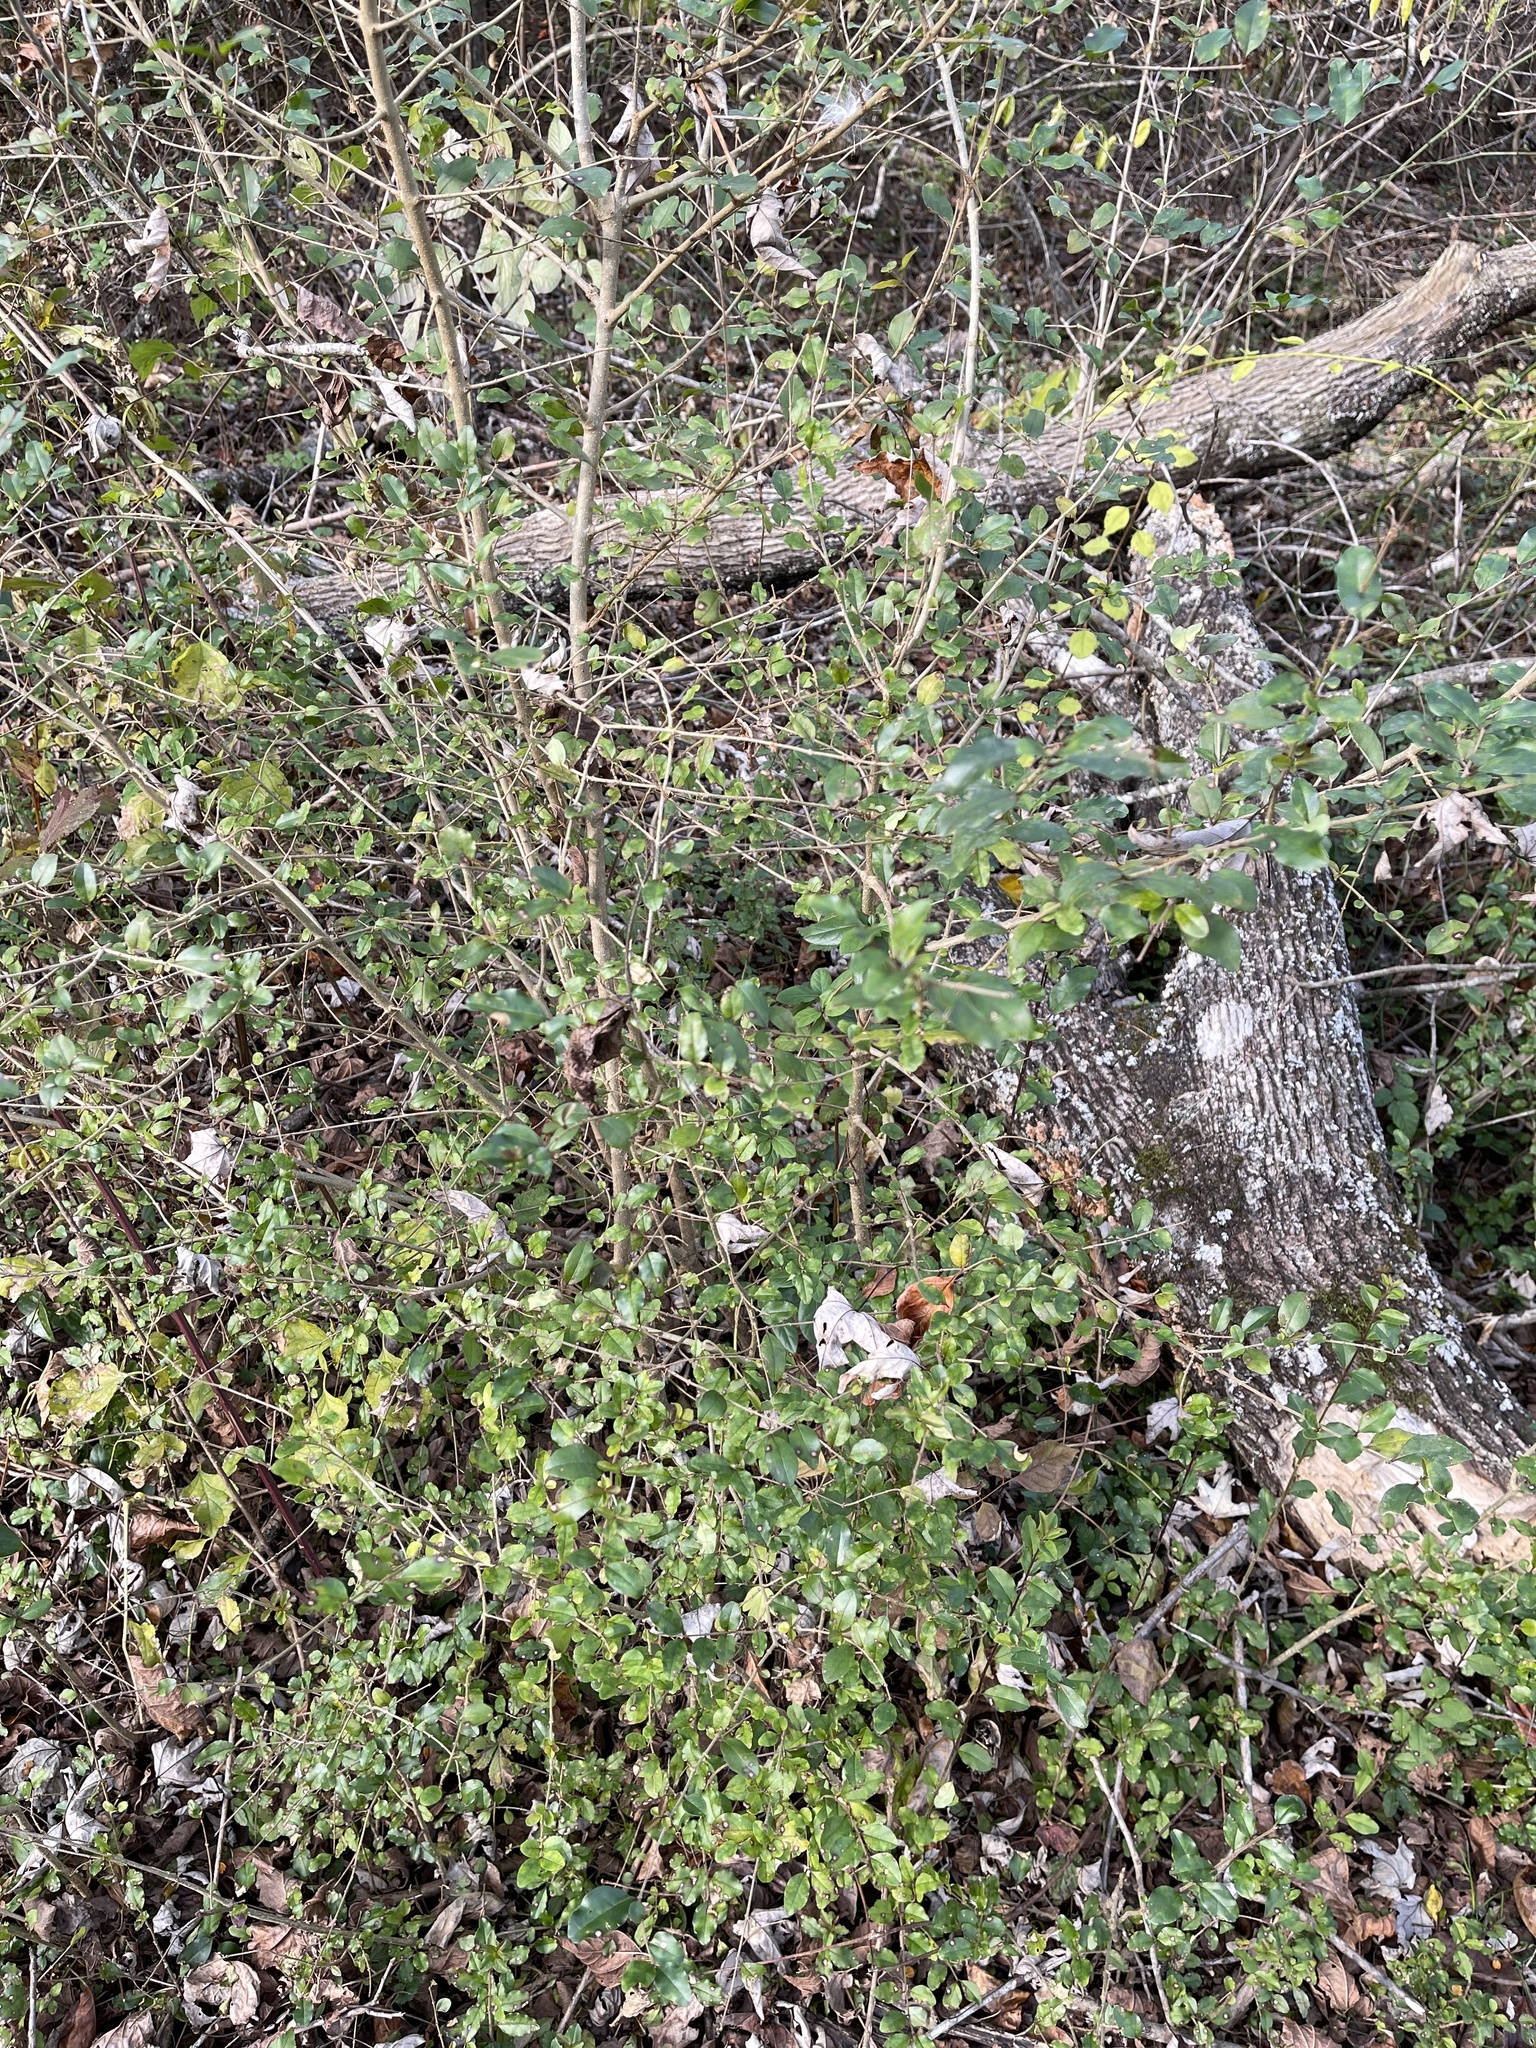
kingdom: Plantae
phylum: Tracheophyta
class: Magnoliopsida
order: Lamiales
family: Oleaceae
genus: Ligustrum
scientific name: Ligustrum sinense
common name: Chinese privet
